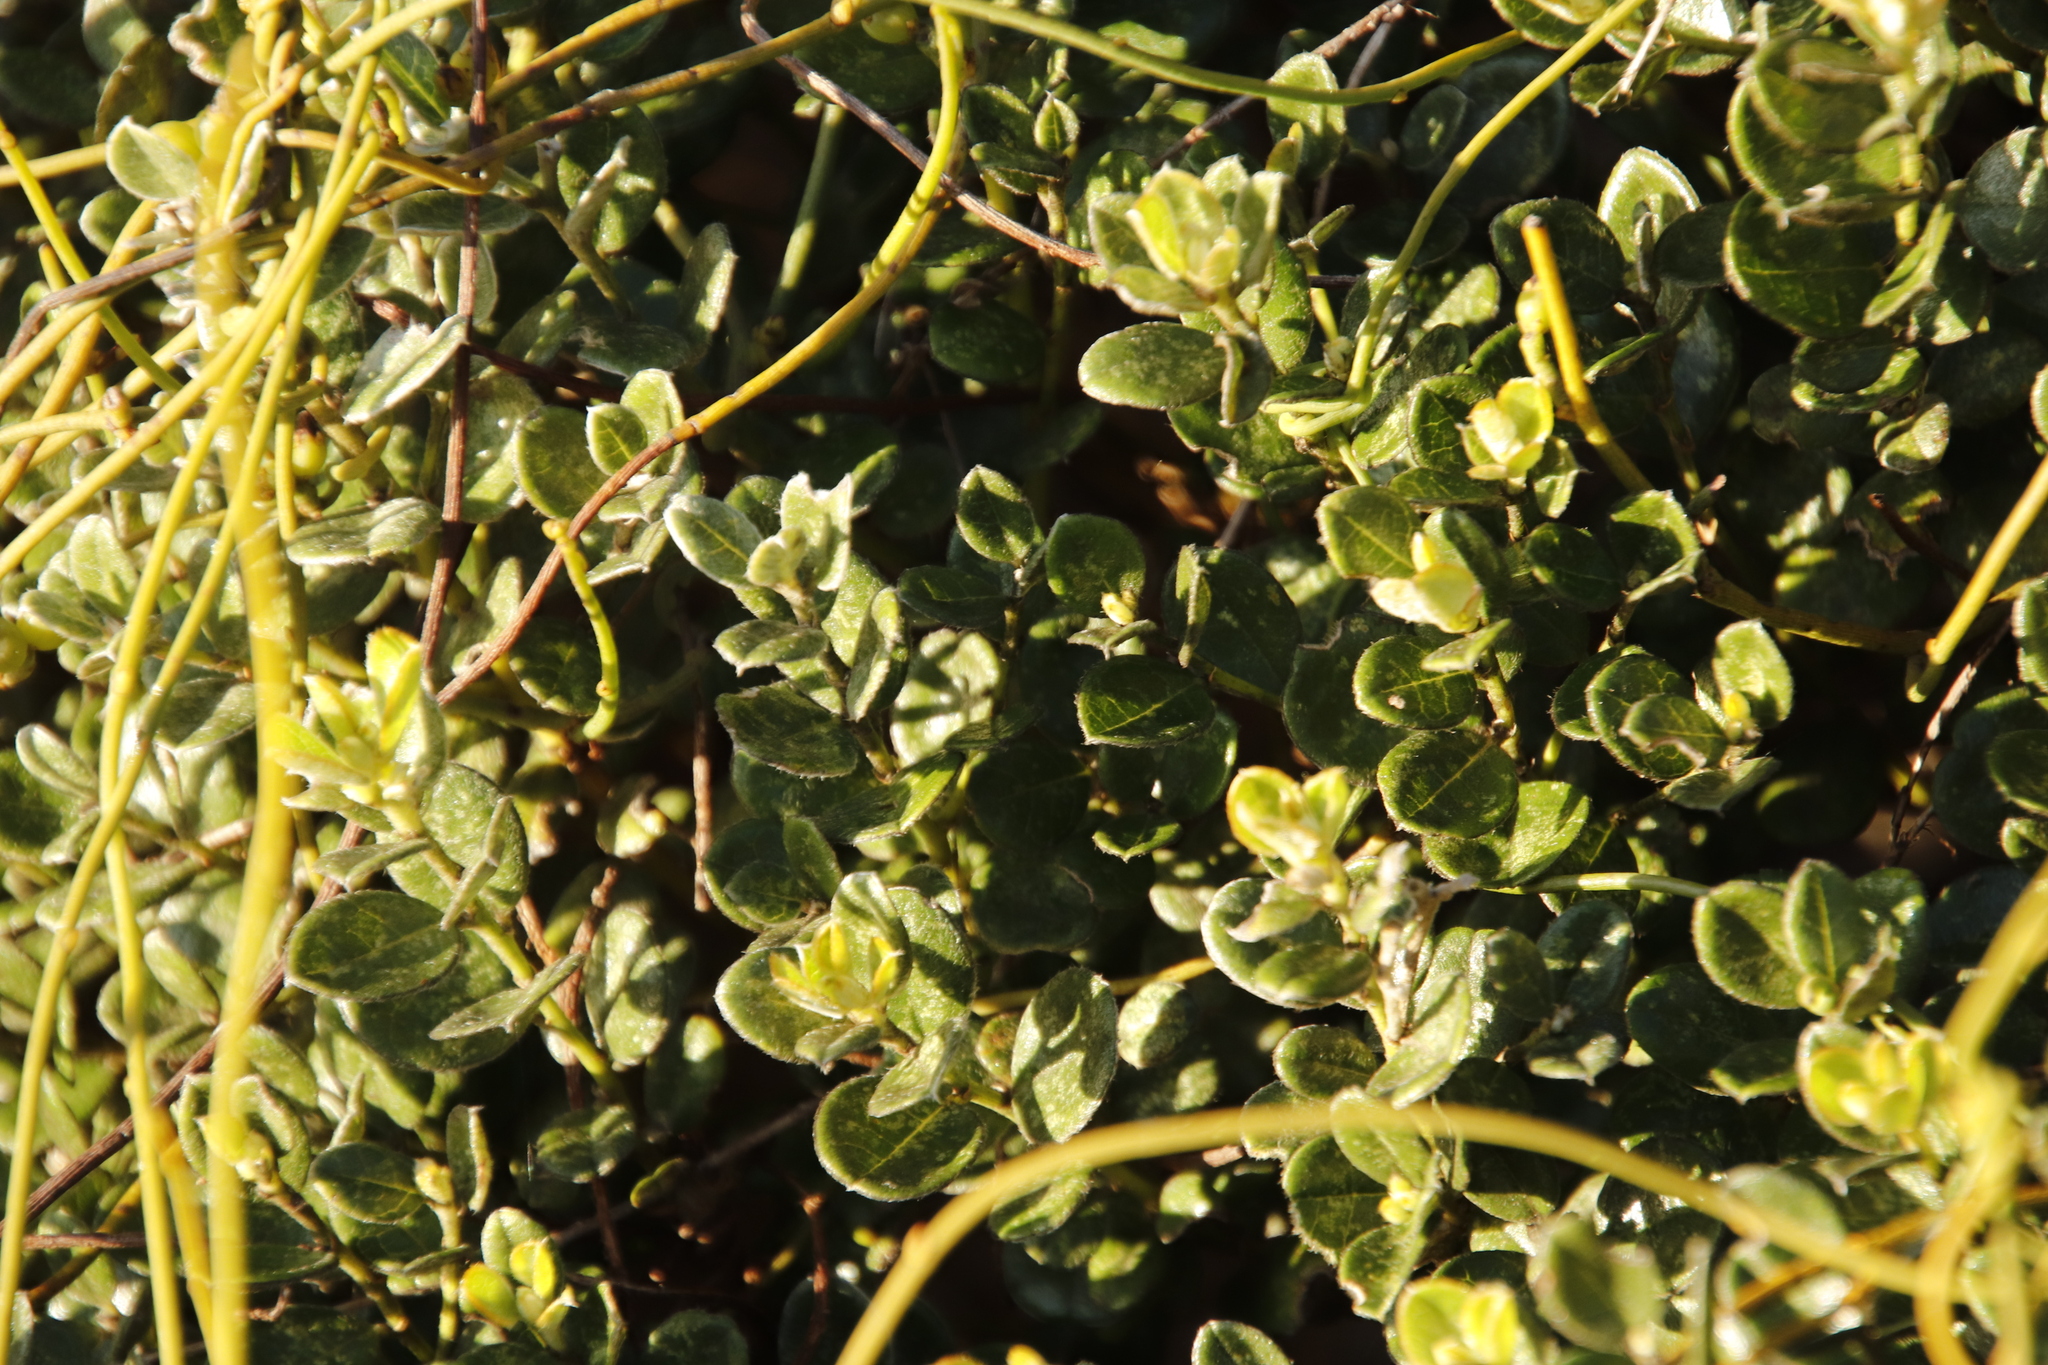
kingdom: Plantae
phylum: Tracheophyta
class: Magnoliopsida
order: Laurales
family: Lauraceae
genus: Cassytha
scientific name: Cassytha ciliolata
